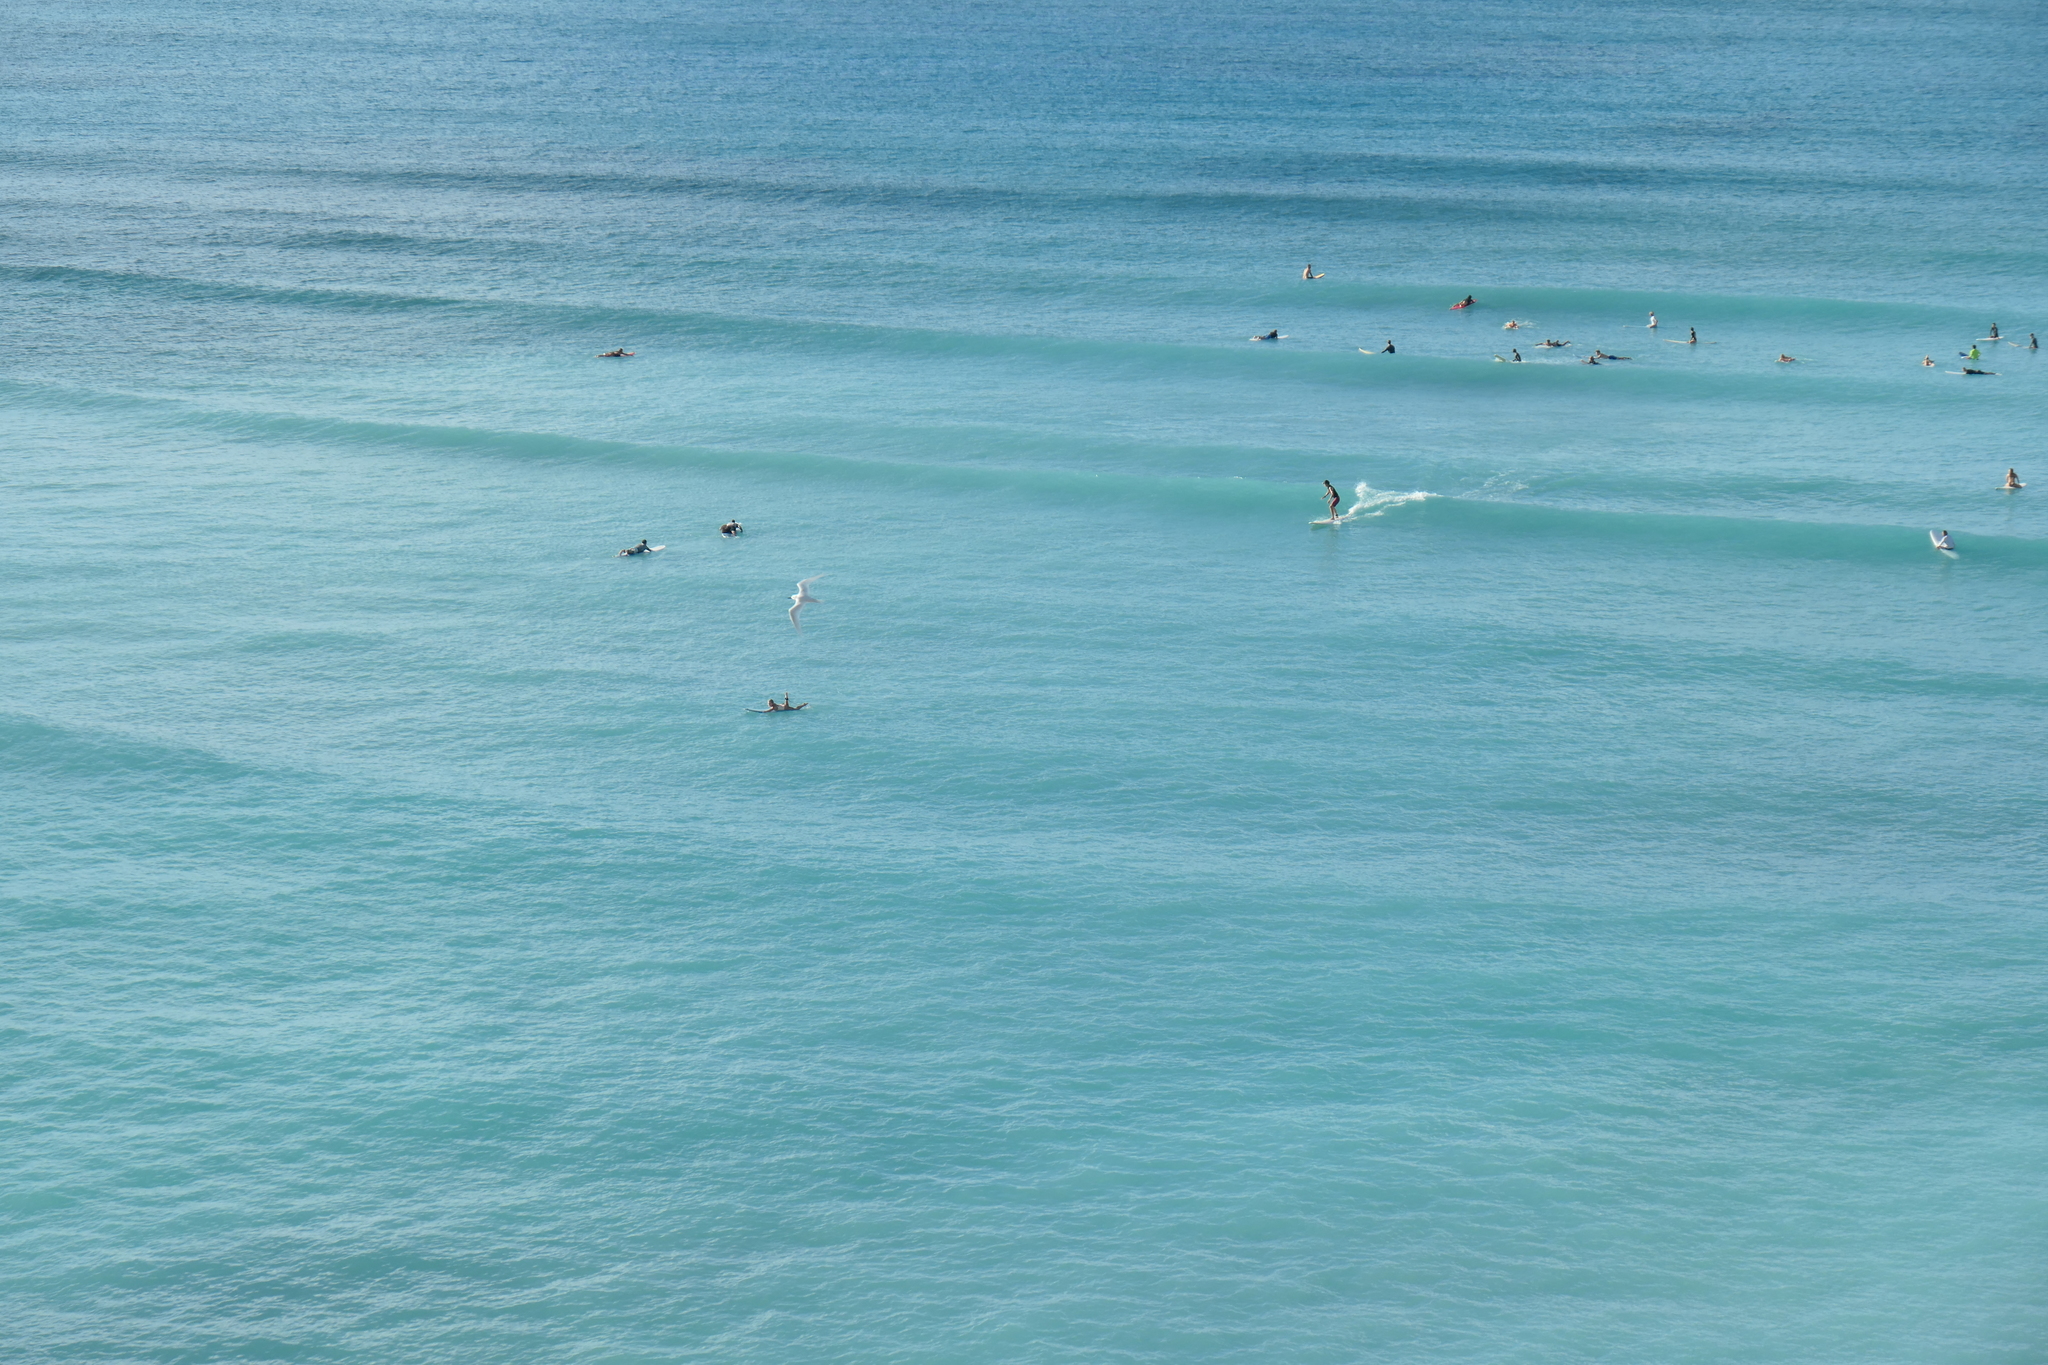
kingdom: Animalia
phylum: Chordata
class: Aves
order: Charadriiformes
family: Laridae
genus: Gygis
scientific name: Gygis alba
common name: White tern
